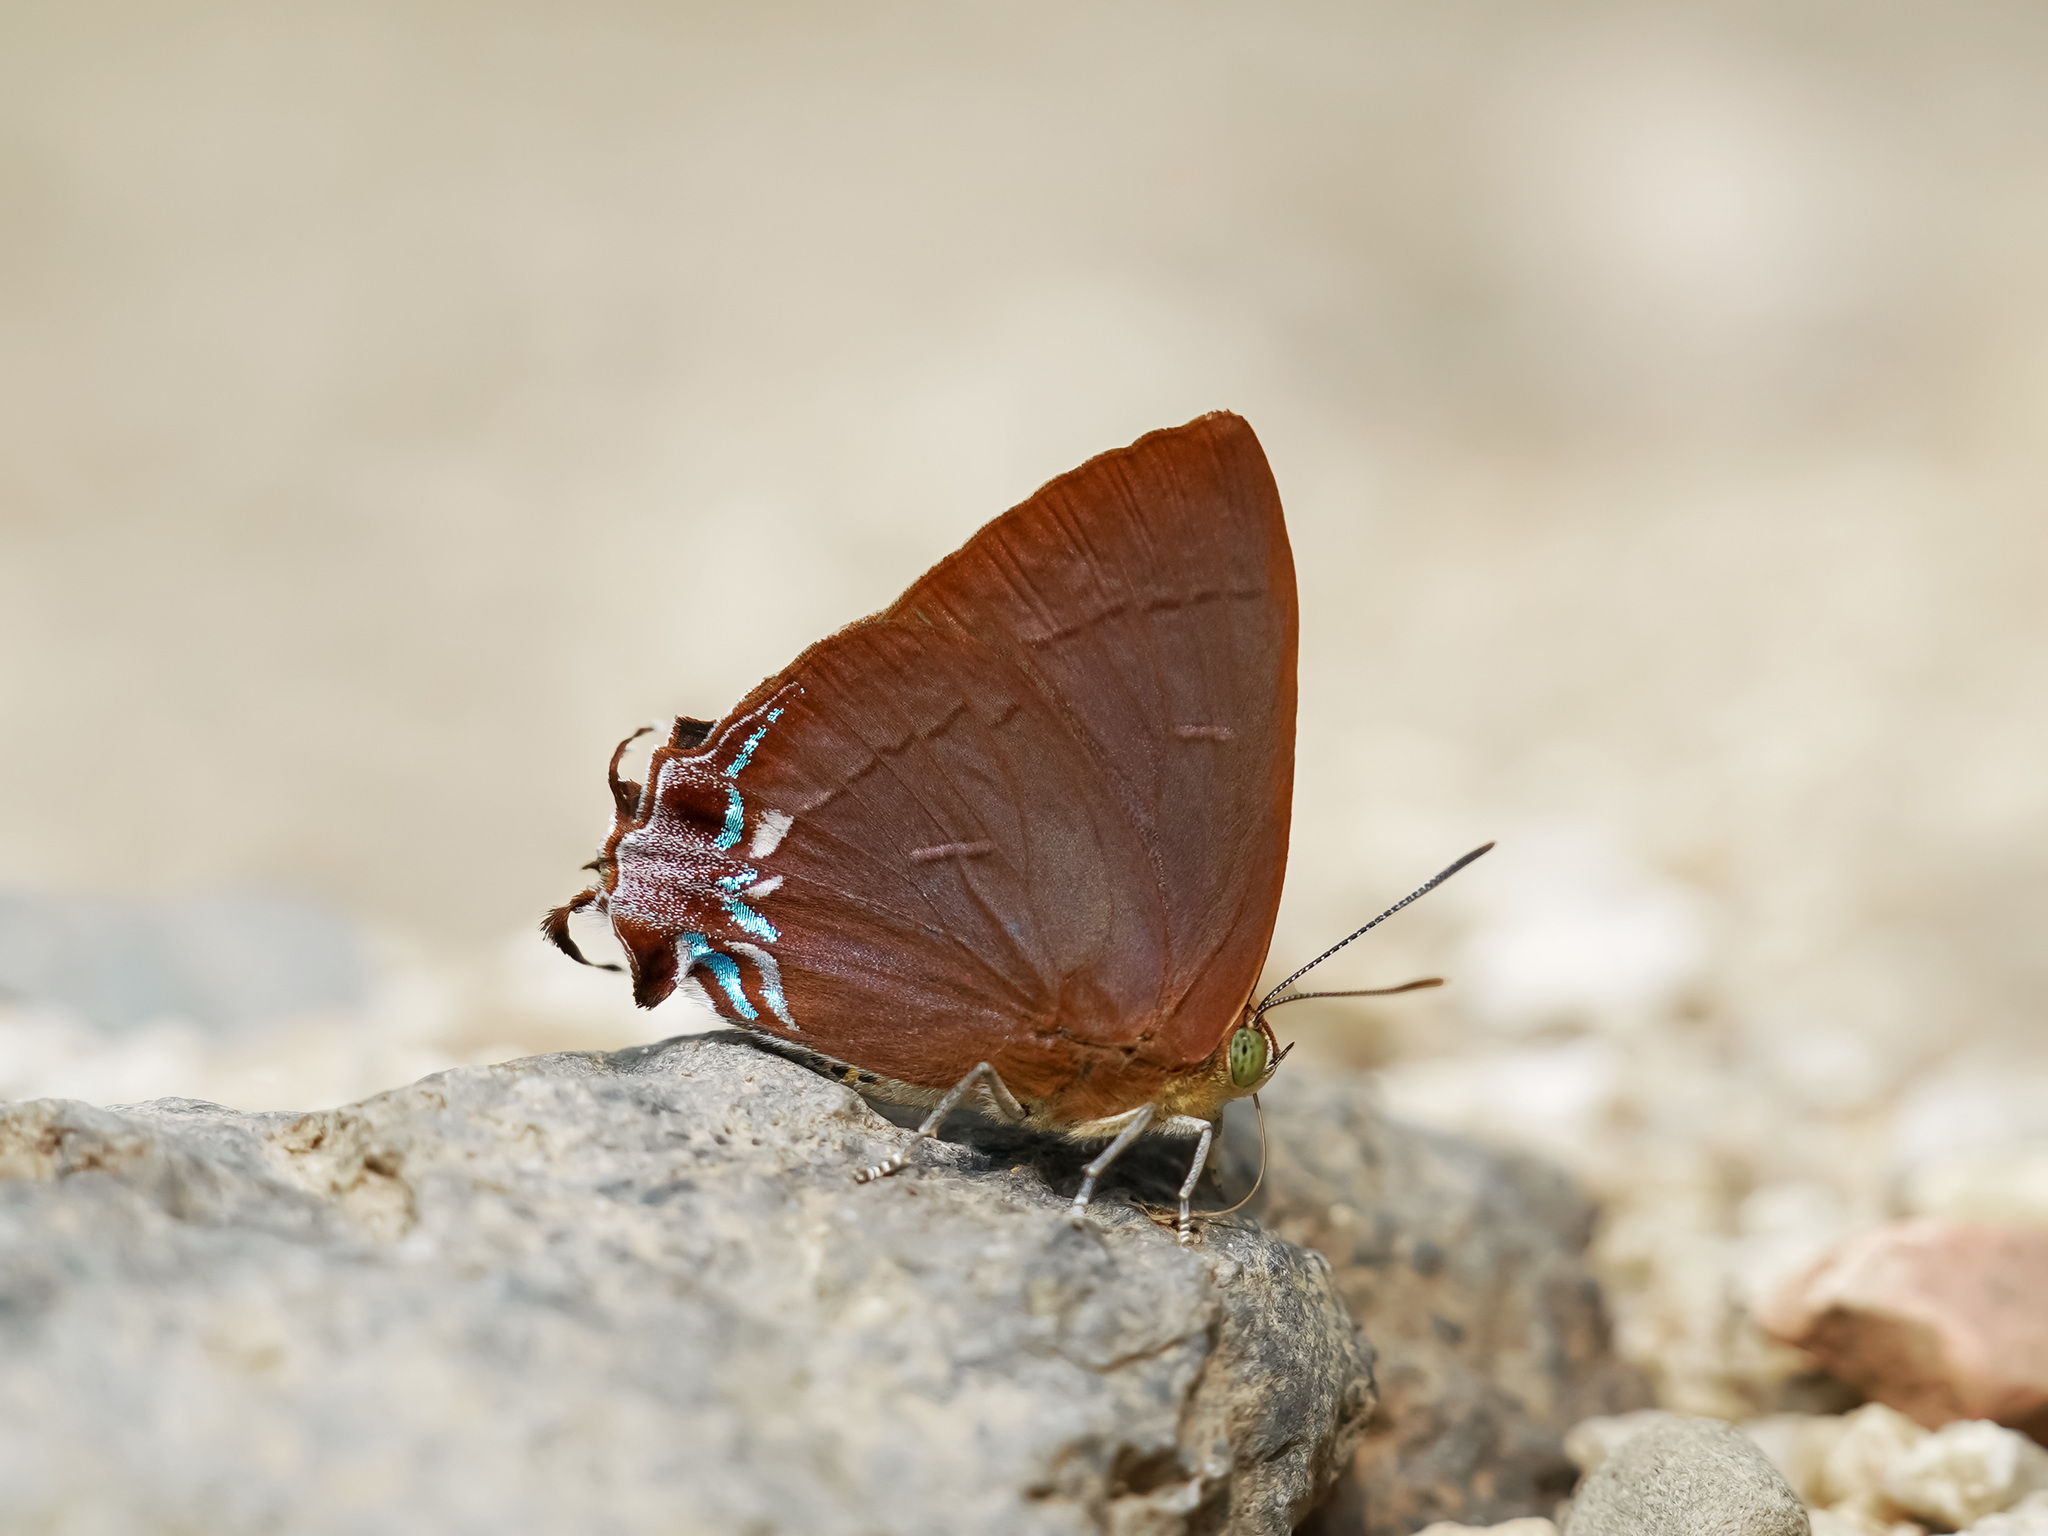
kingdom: Animalia
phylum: Arthropoda
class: Insecta
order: Lepidoptera
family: Lycaenidae
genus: Remelana
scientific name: Remelana jangala
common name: Chocolate royal
